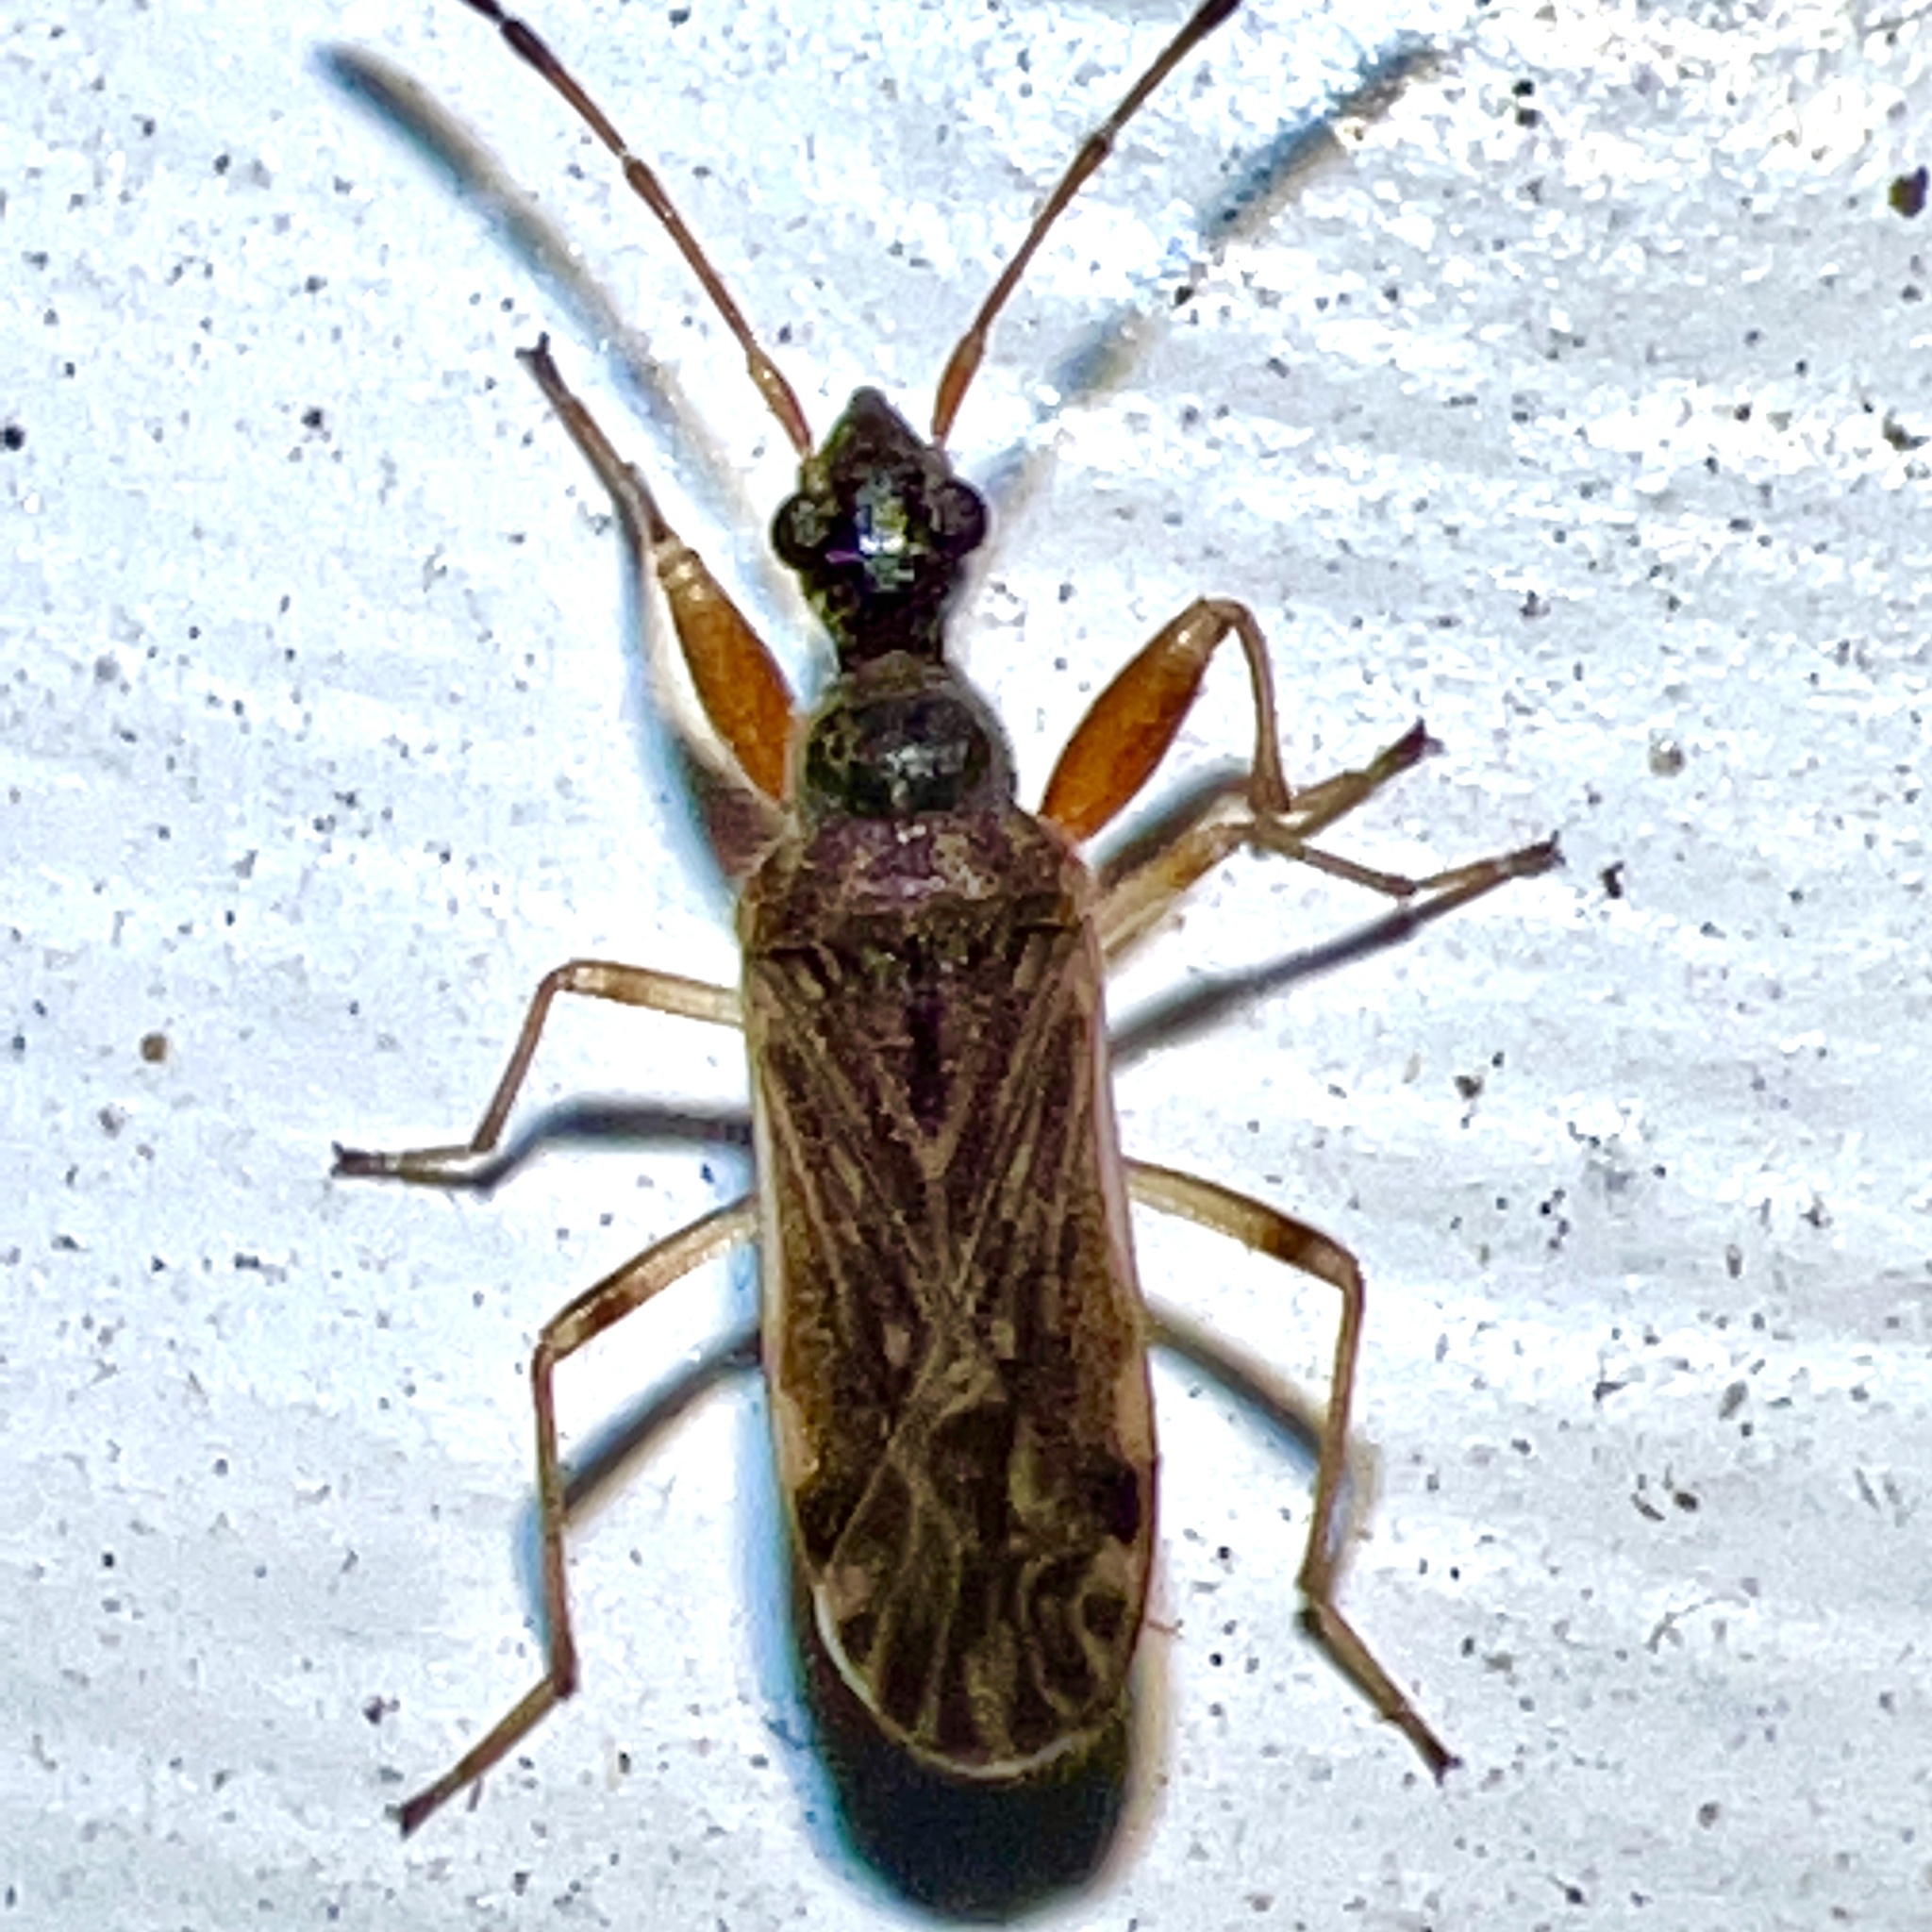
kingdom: Animalia
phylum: Arthropoda
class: Insecta
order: Hemiptera
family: Rhyparochromidae
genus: Heraeus
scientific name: Heraeus plebejus
